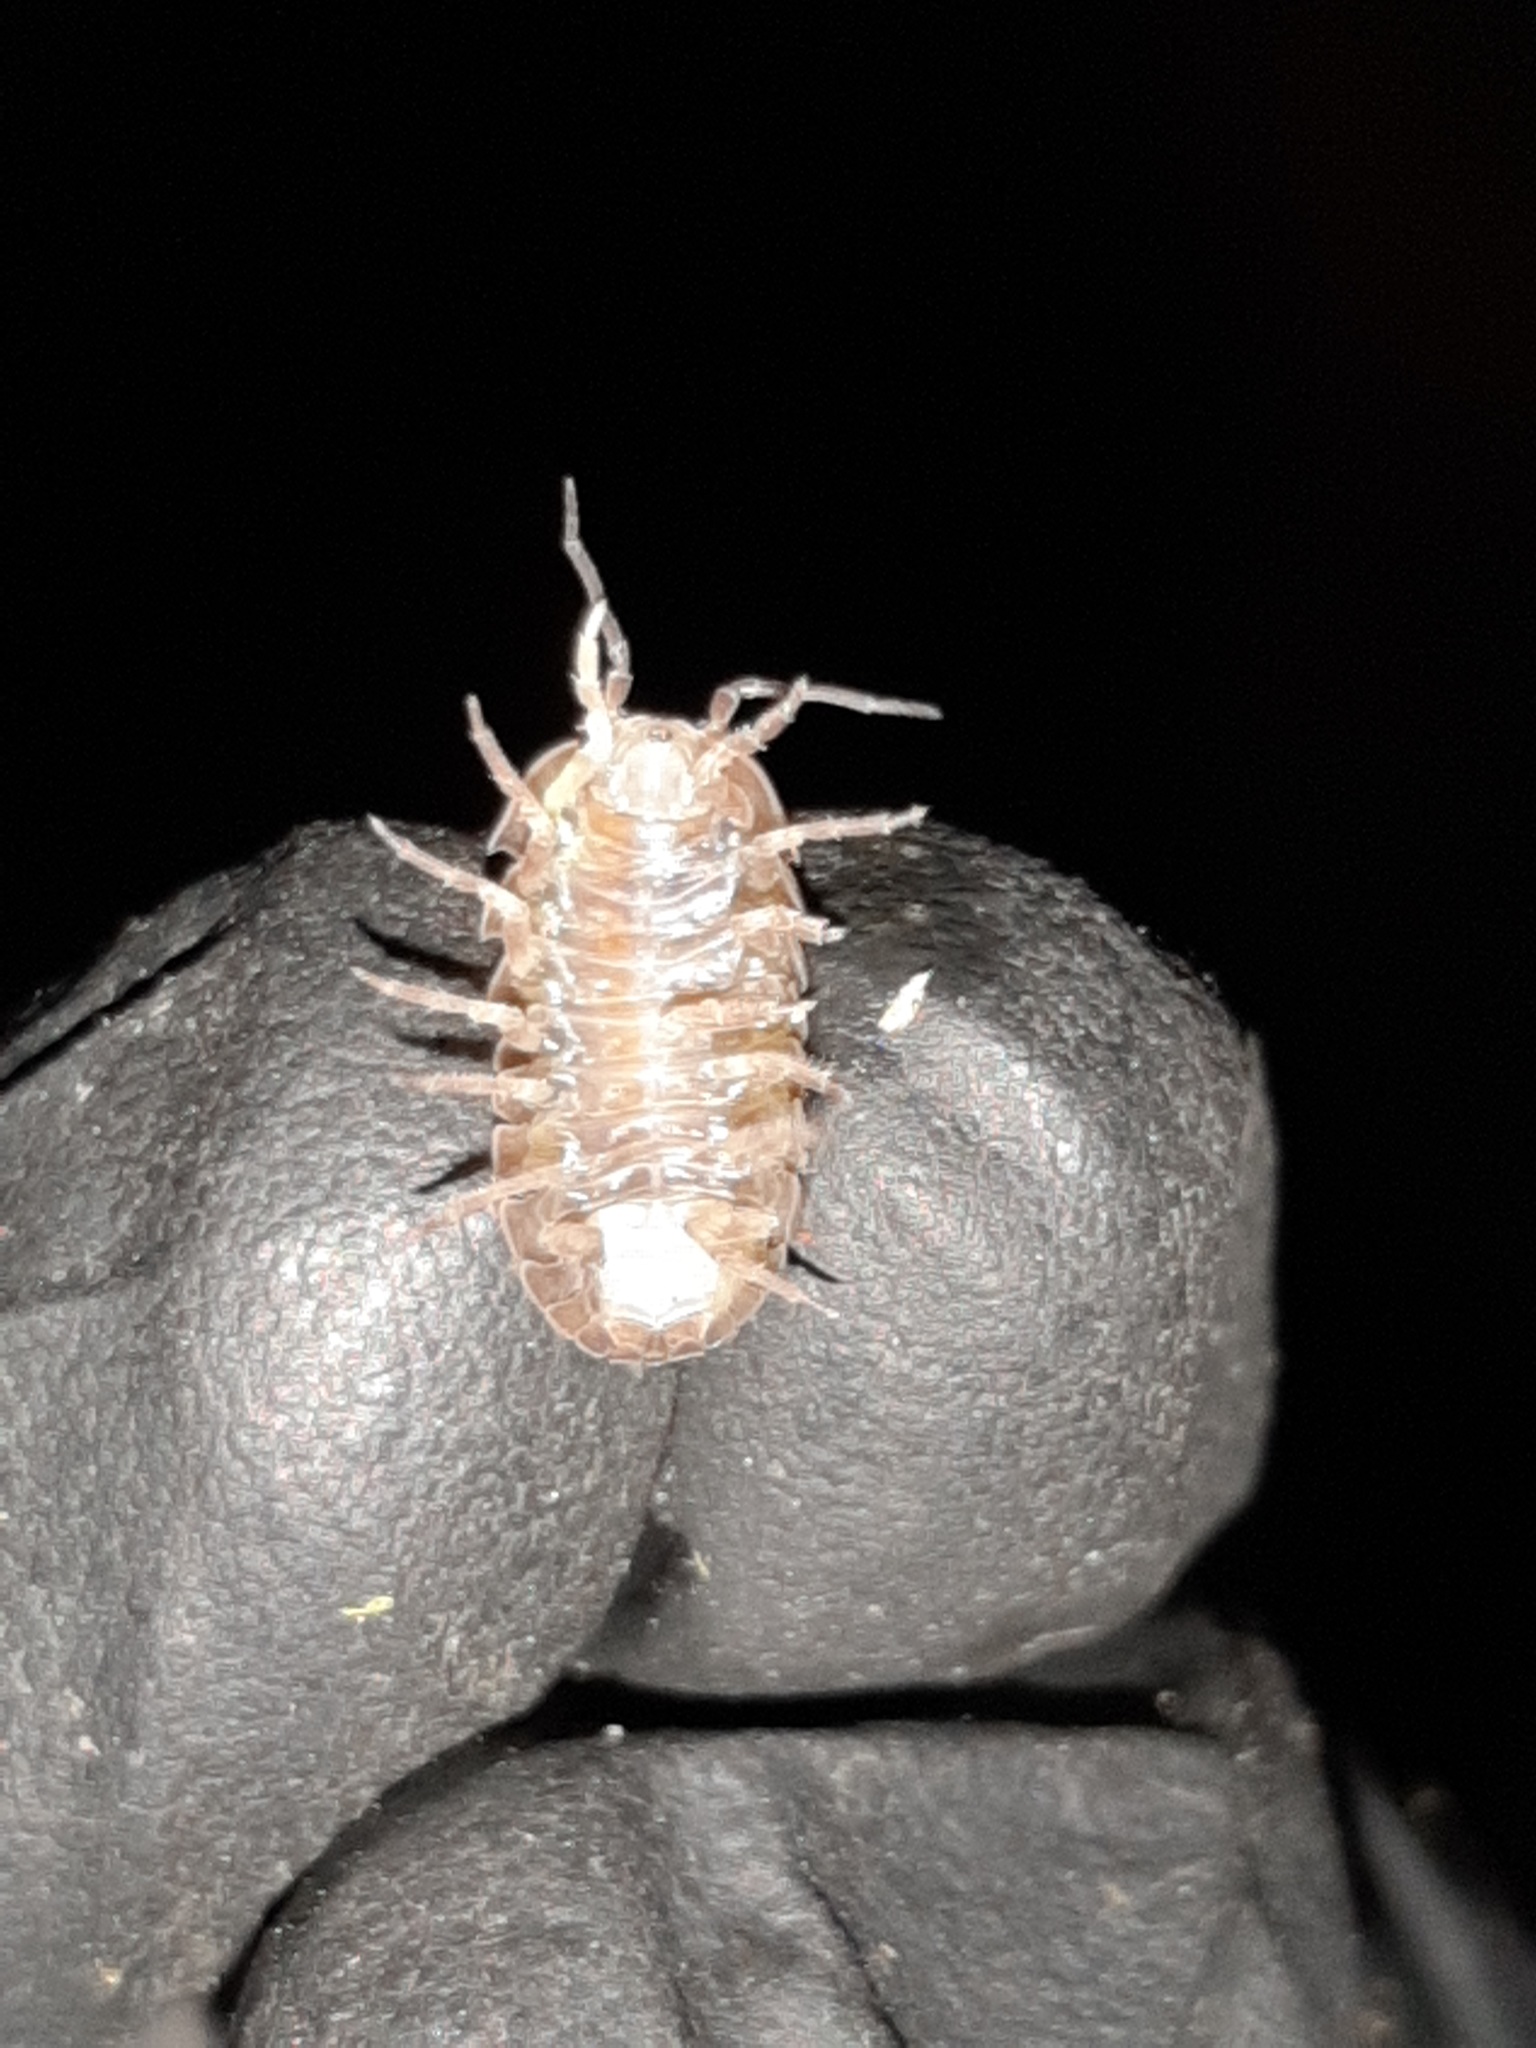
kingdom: Animalia
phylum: Arthropoda
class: Malacostraca
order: Isopoda
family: Armadillidiidae
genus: Armadillidium
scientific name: Armadillidium vulgare
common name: Common pill woodlouse
